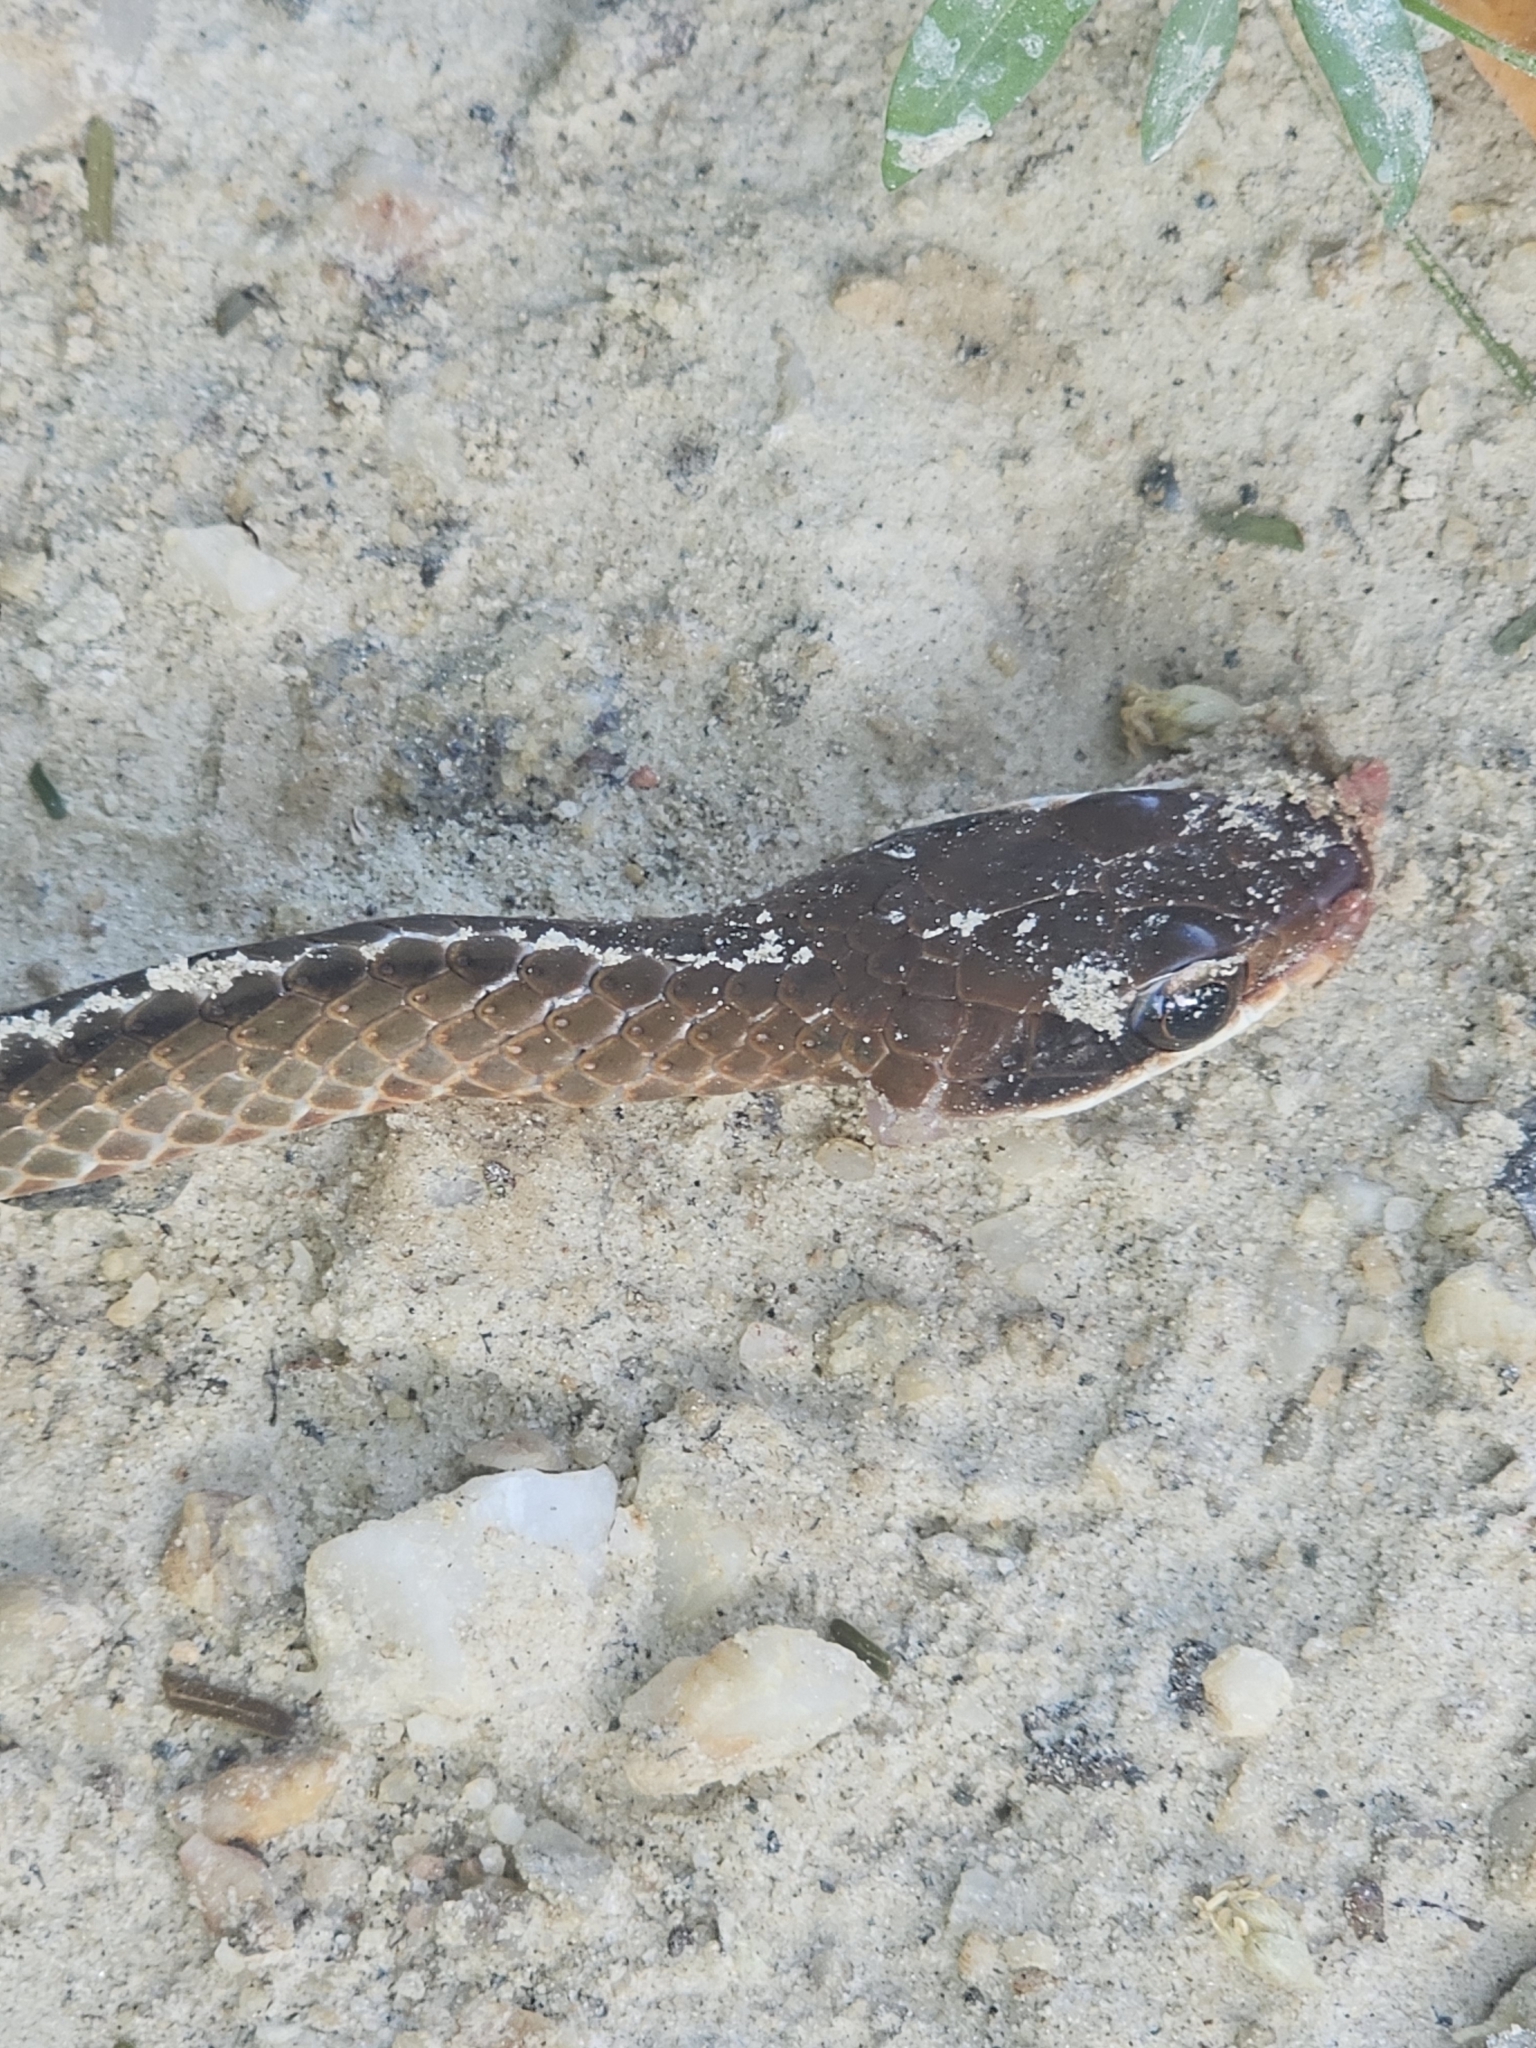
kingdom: Animalia
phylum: Chordata
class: Squamata
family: Colubridae
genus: Chironius
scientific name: Chironius fuscus
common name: Brown sipo
